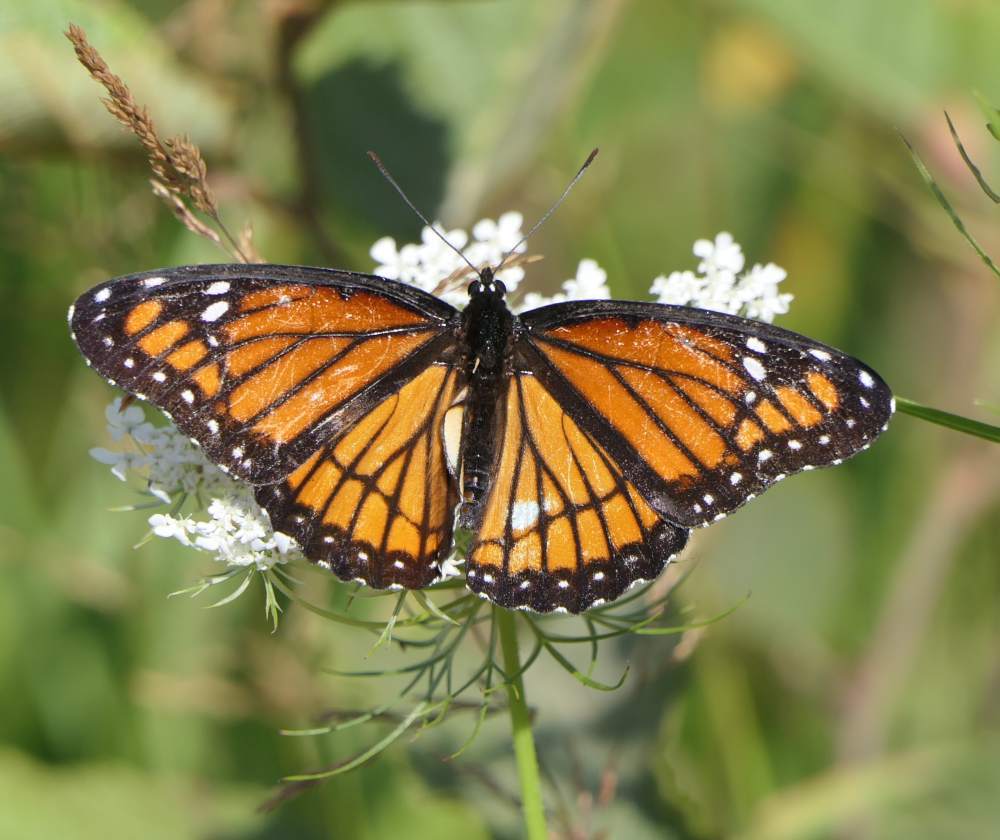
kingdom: Animalia
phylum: Arthropoda
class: Insecta
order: Lepidoptera
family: Nymphalidae
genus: Limenitis
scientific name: Limenitis archippus
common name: Viceroy
